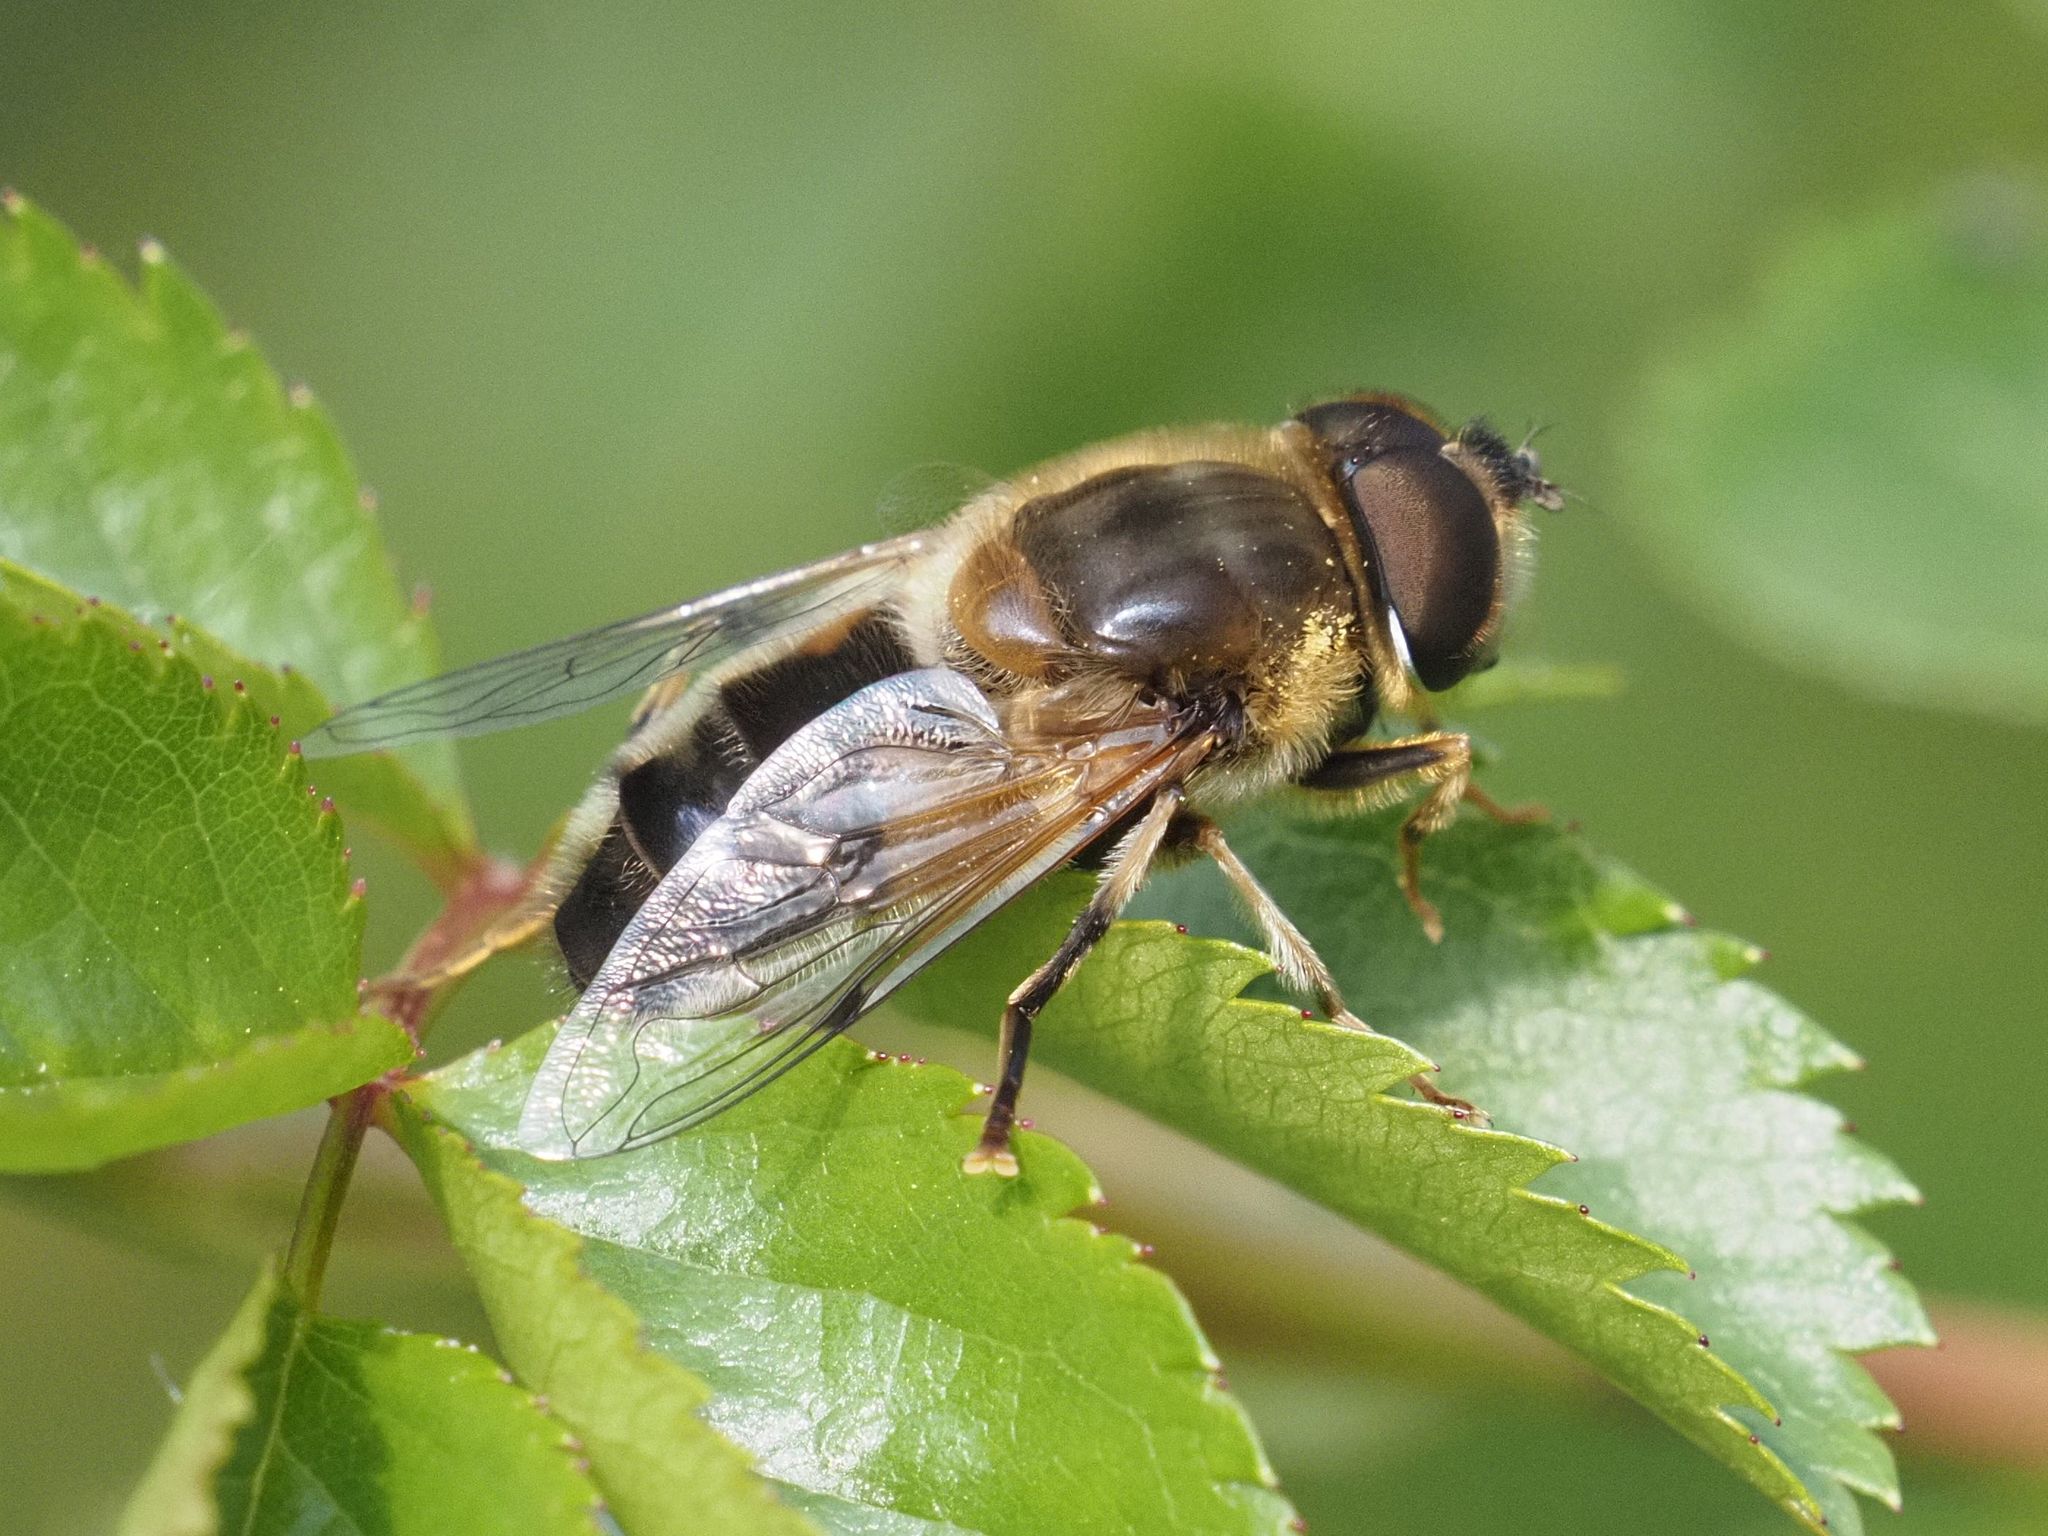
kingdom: Animalia
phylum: Arthropoda
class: Insecta
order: Diptera
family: Syrphidae
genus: Eristalis
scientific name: Eristalis pertinax
